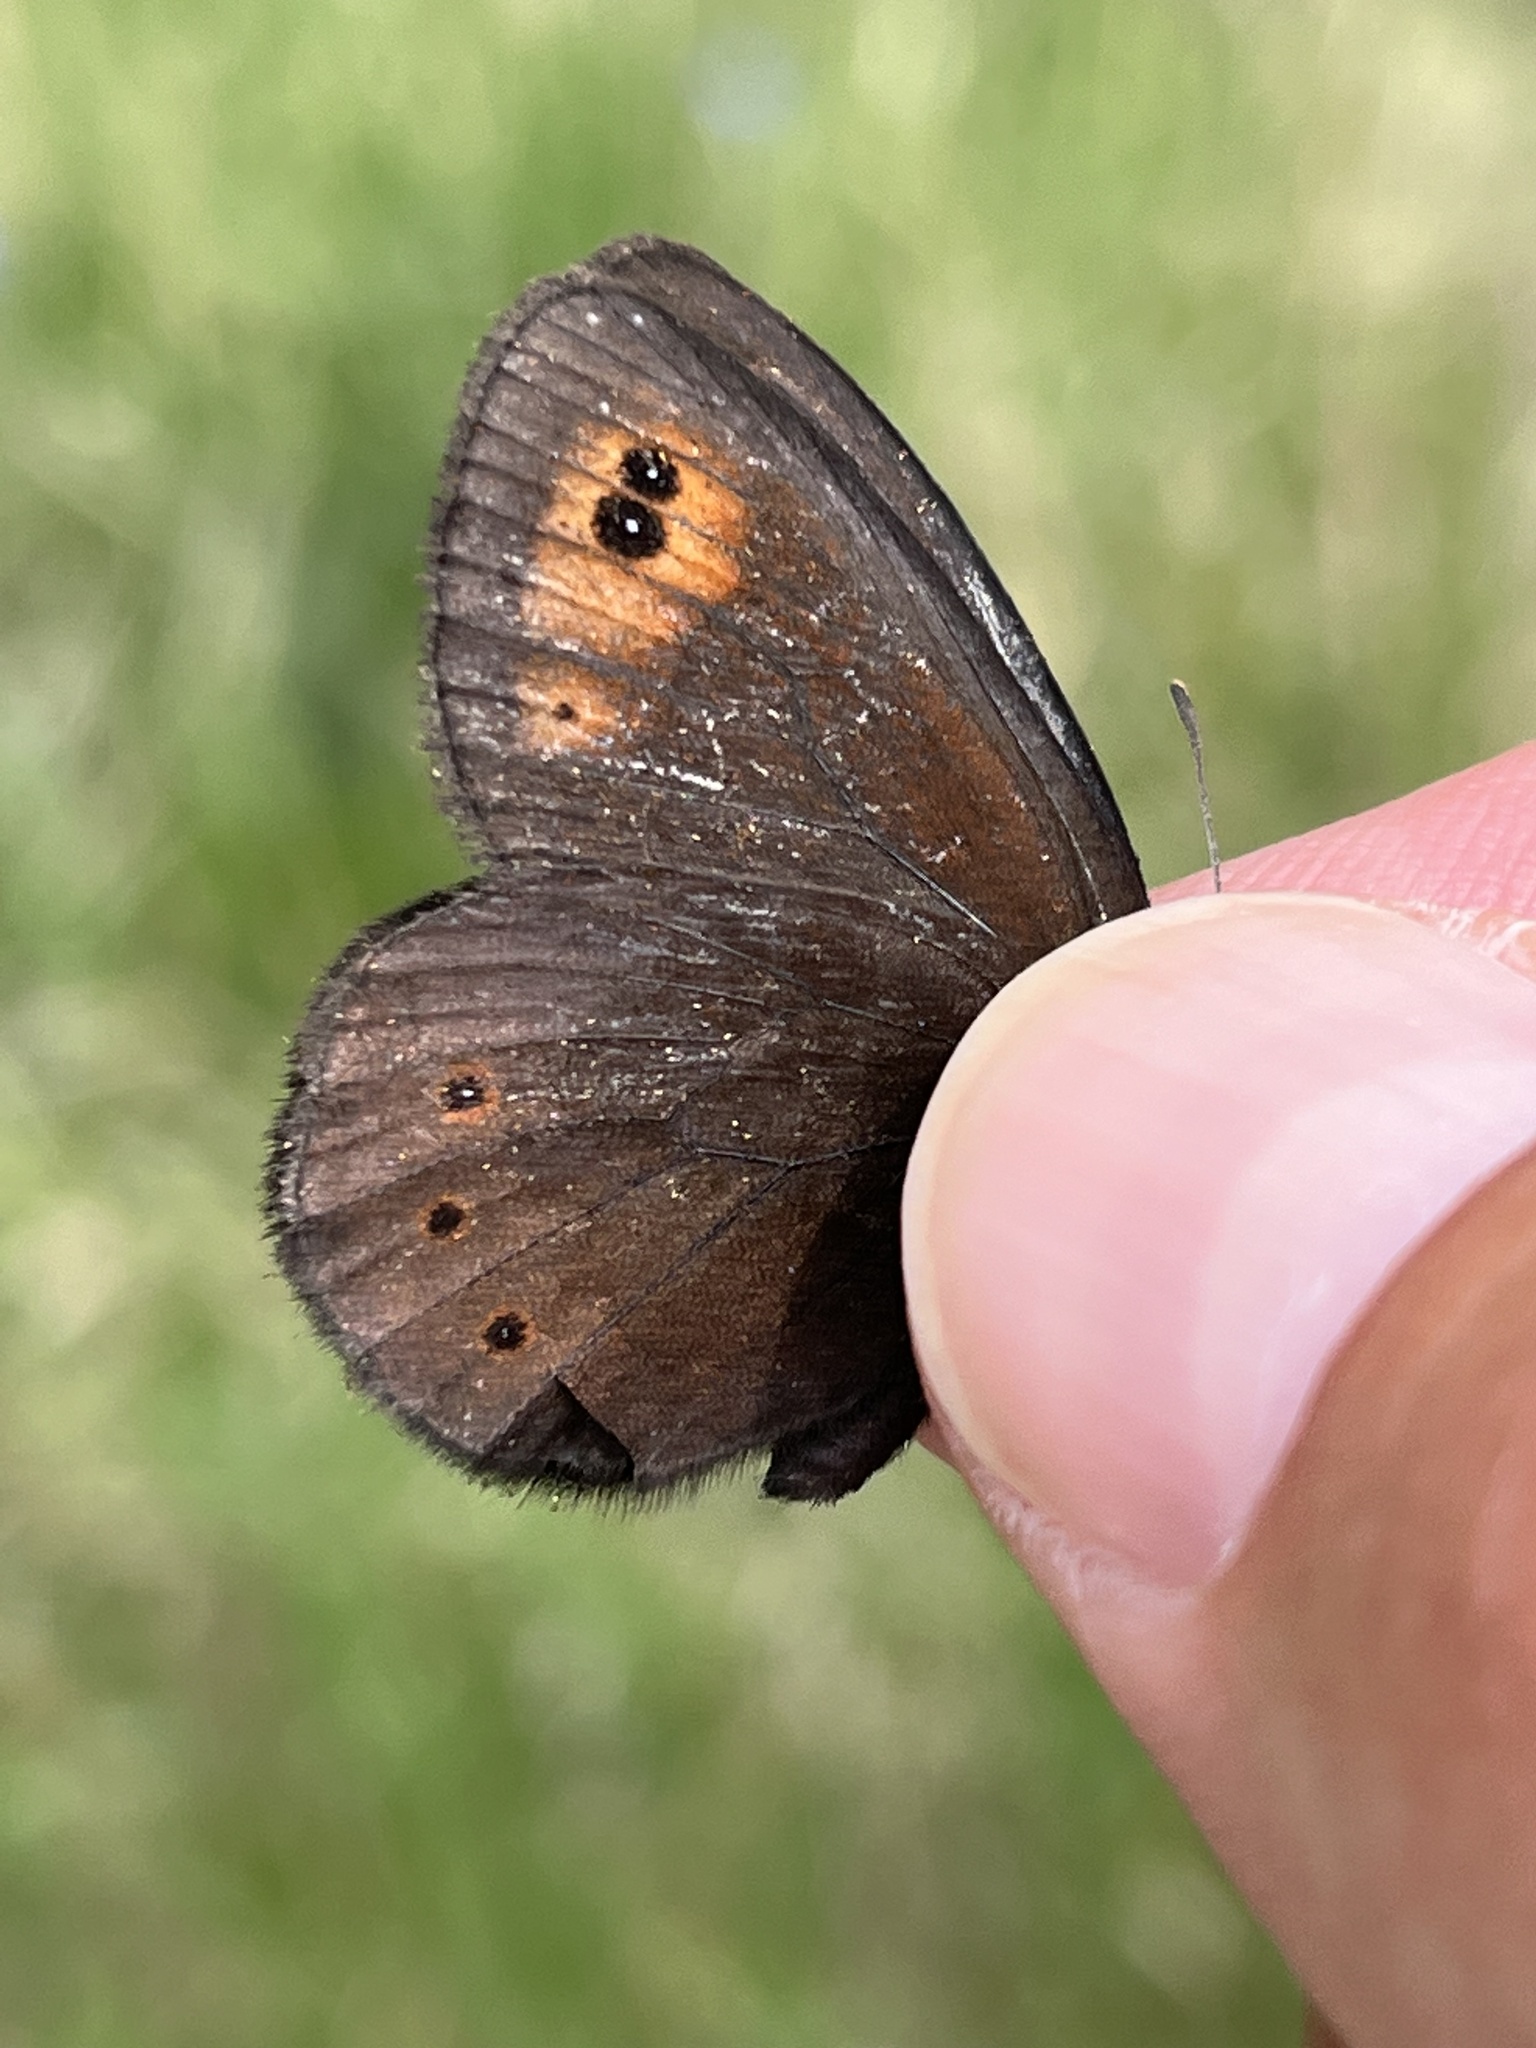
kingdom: Animalia
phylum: Arthropoda
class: Insecta
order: Lepidoptera
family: Nymphalidae
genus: Erebia
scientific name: Erebia epipsodea
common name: Common alpine
